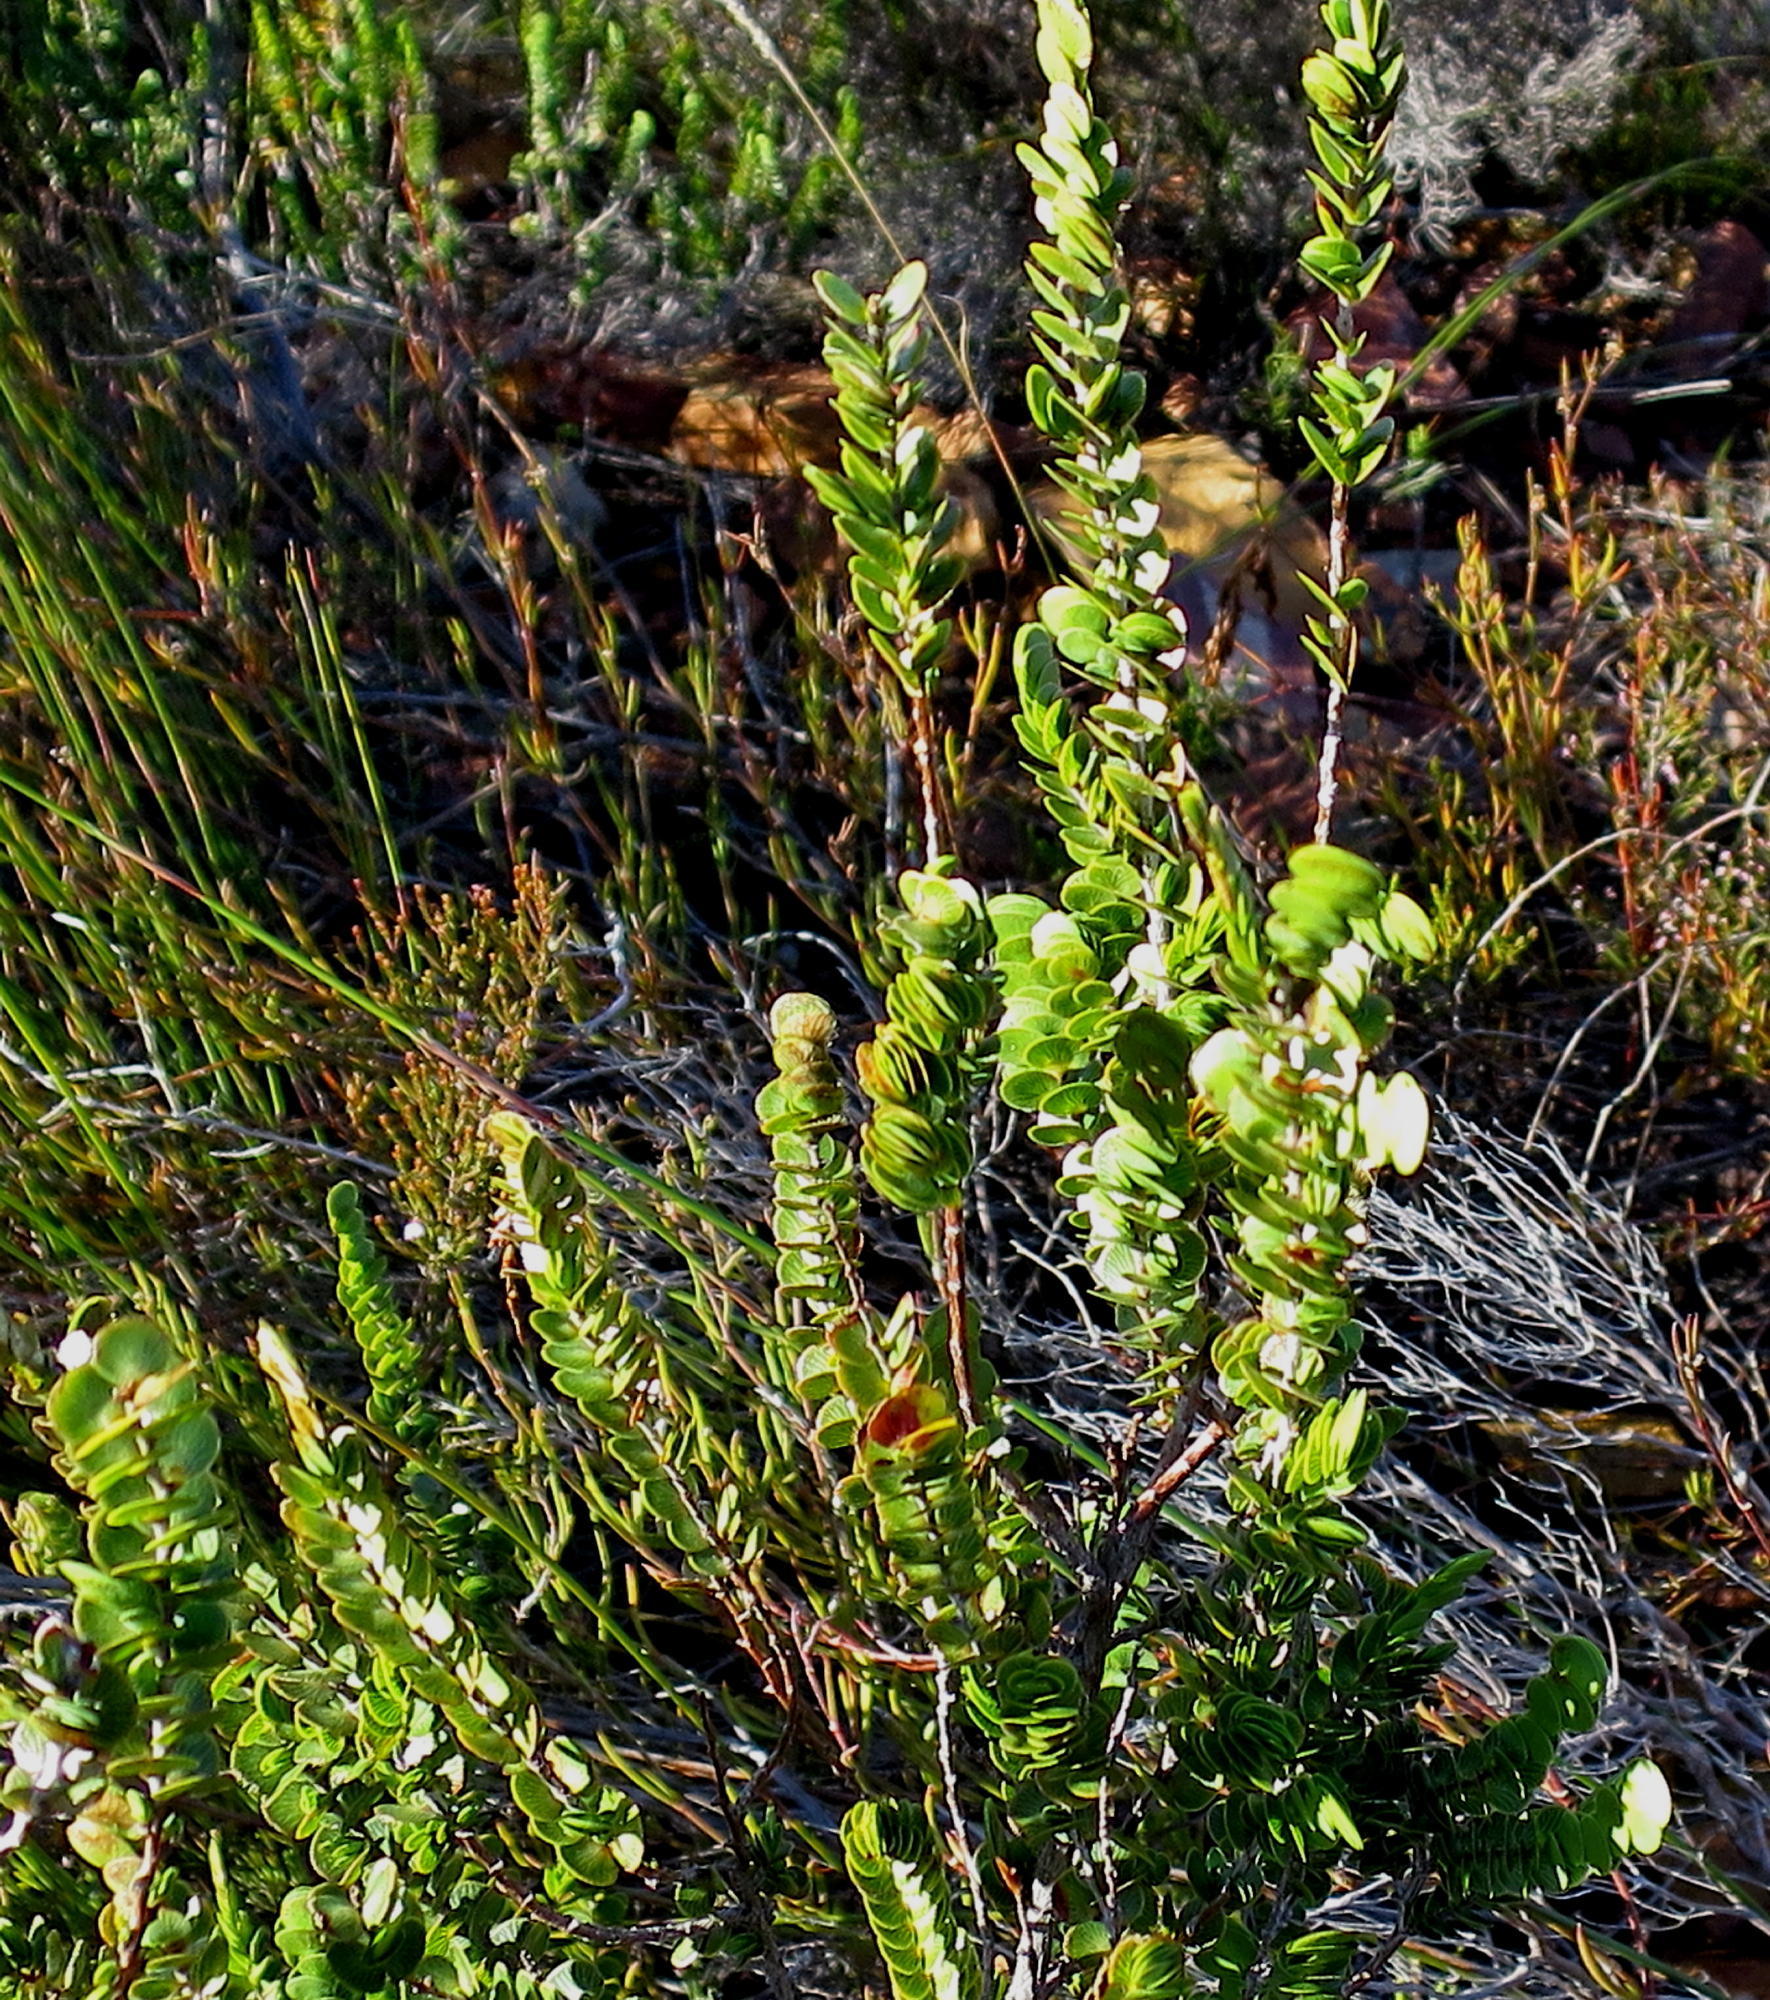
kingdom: Plantae
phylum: Tracheophyta
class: Magnoliopsida
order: Rosales
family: Rosaceae
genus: Cliffortia
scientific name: Cliffortia pulchella
